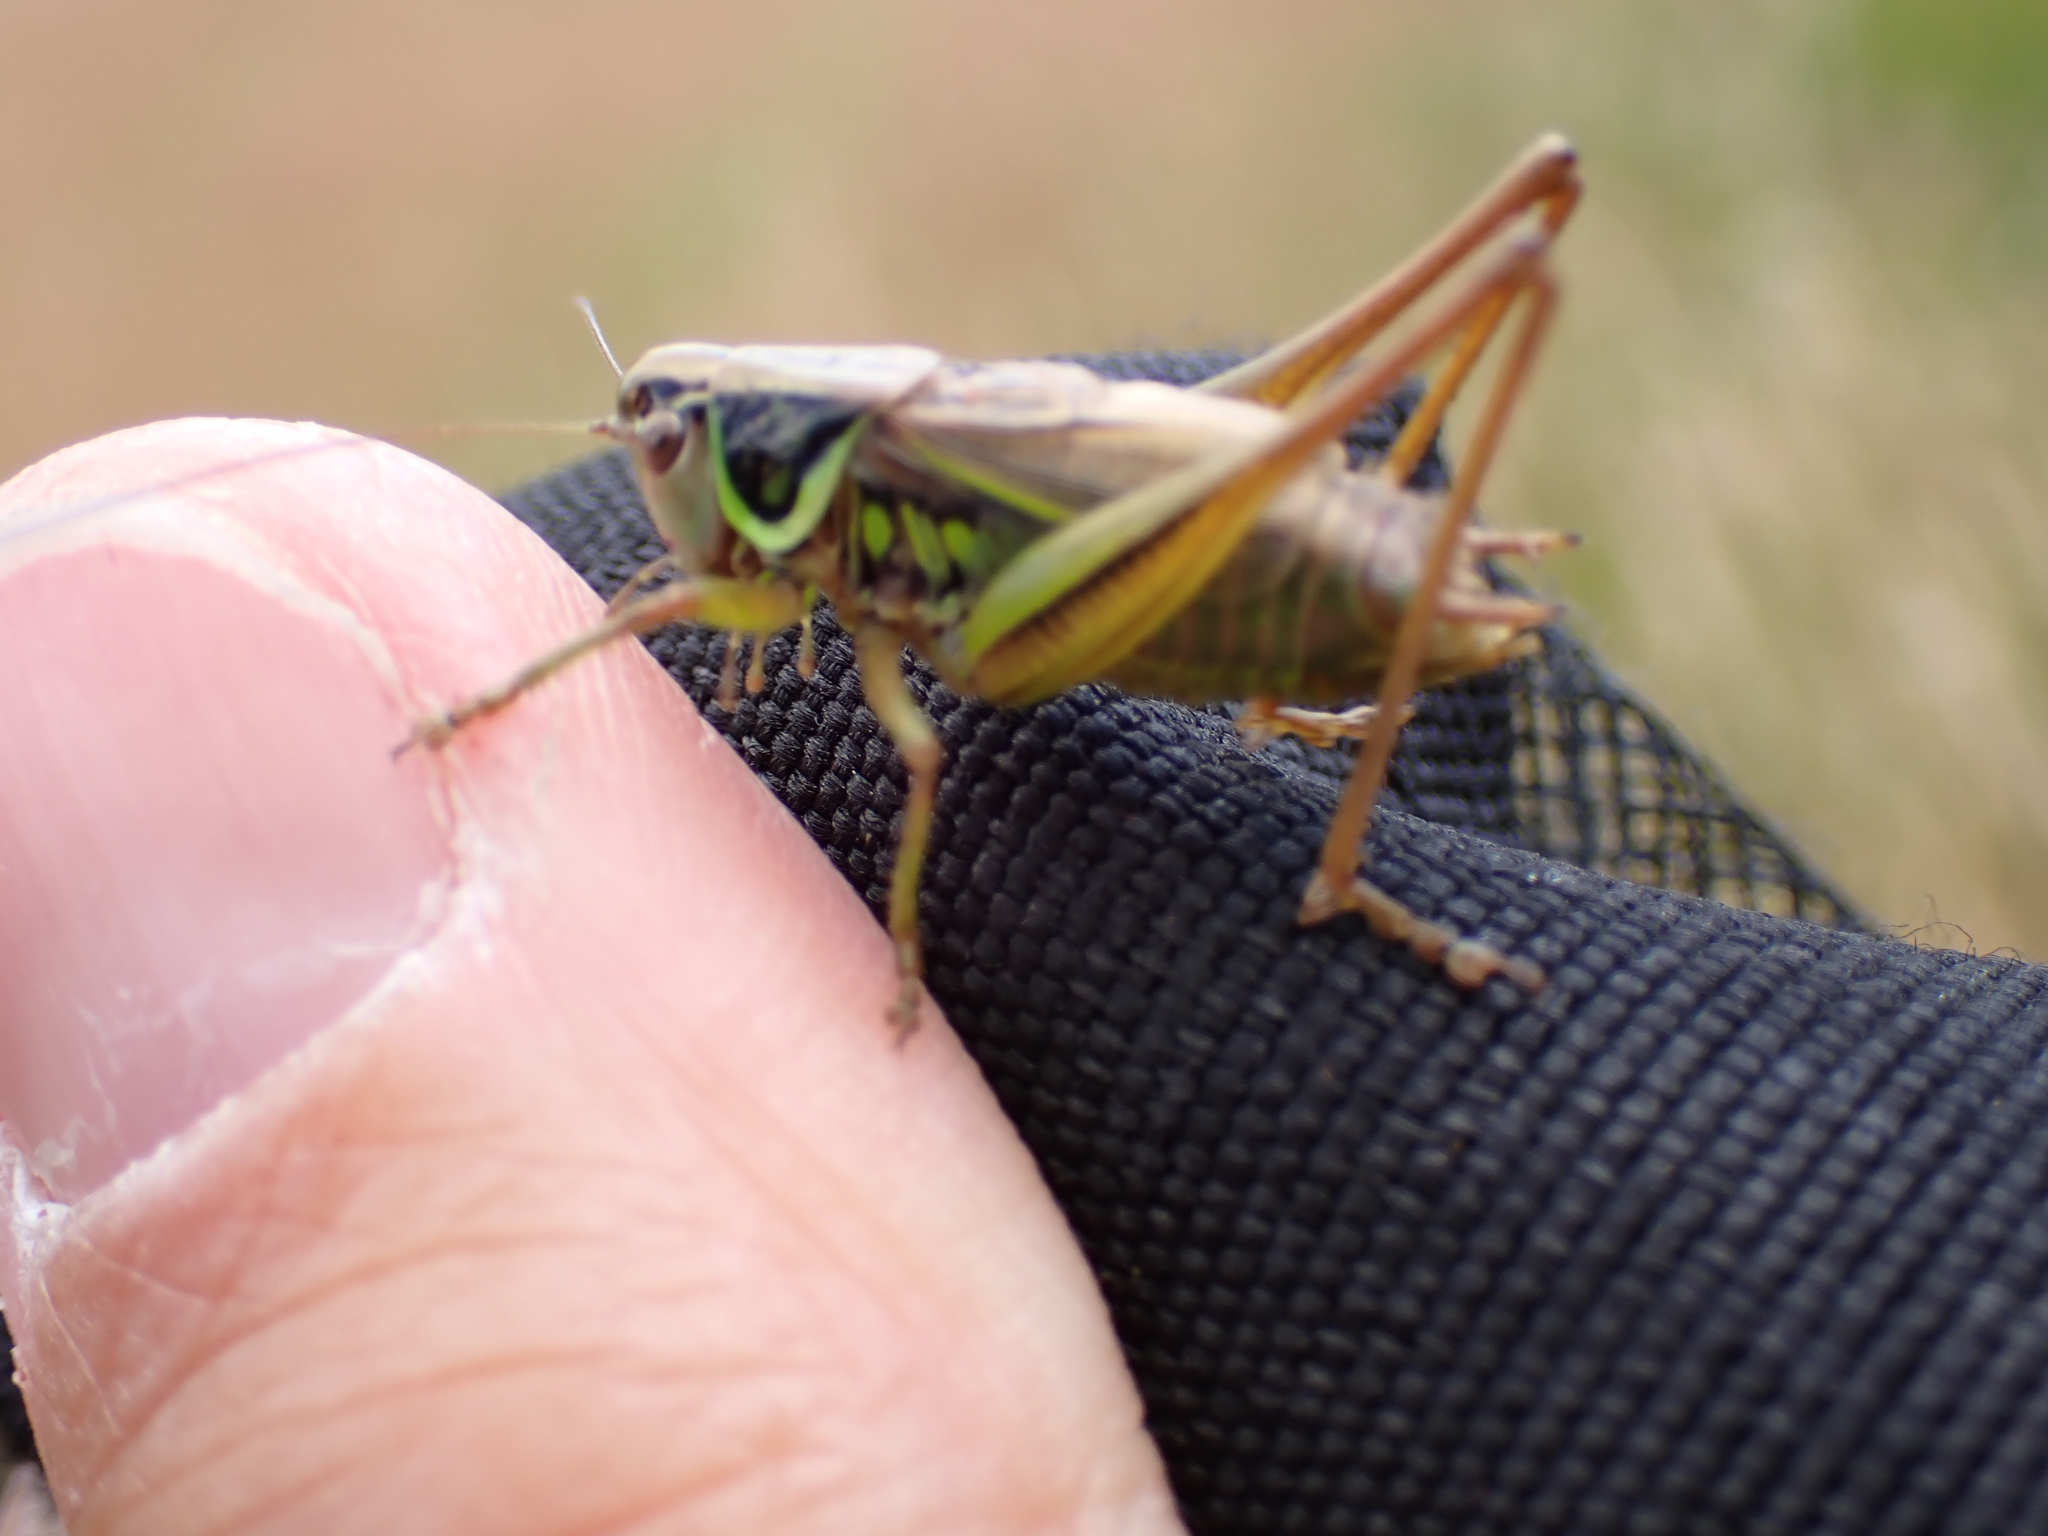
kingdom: Animalia
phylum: Arthropoda
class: Insecta
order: Orthoptera
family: Tettigoniidae
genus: Roeseliana
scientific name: Roeseliana roeselii
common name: Roesel's bush cricket
